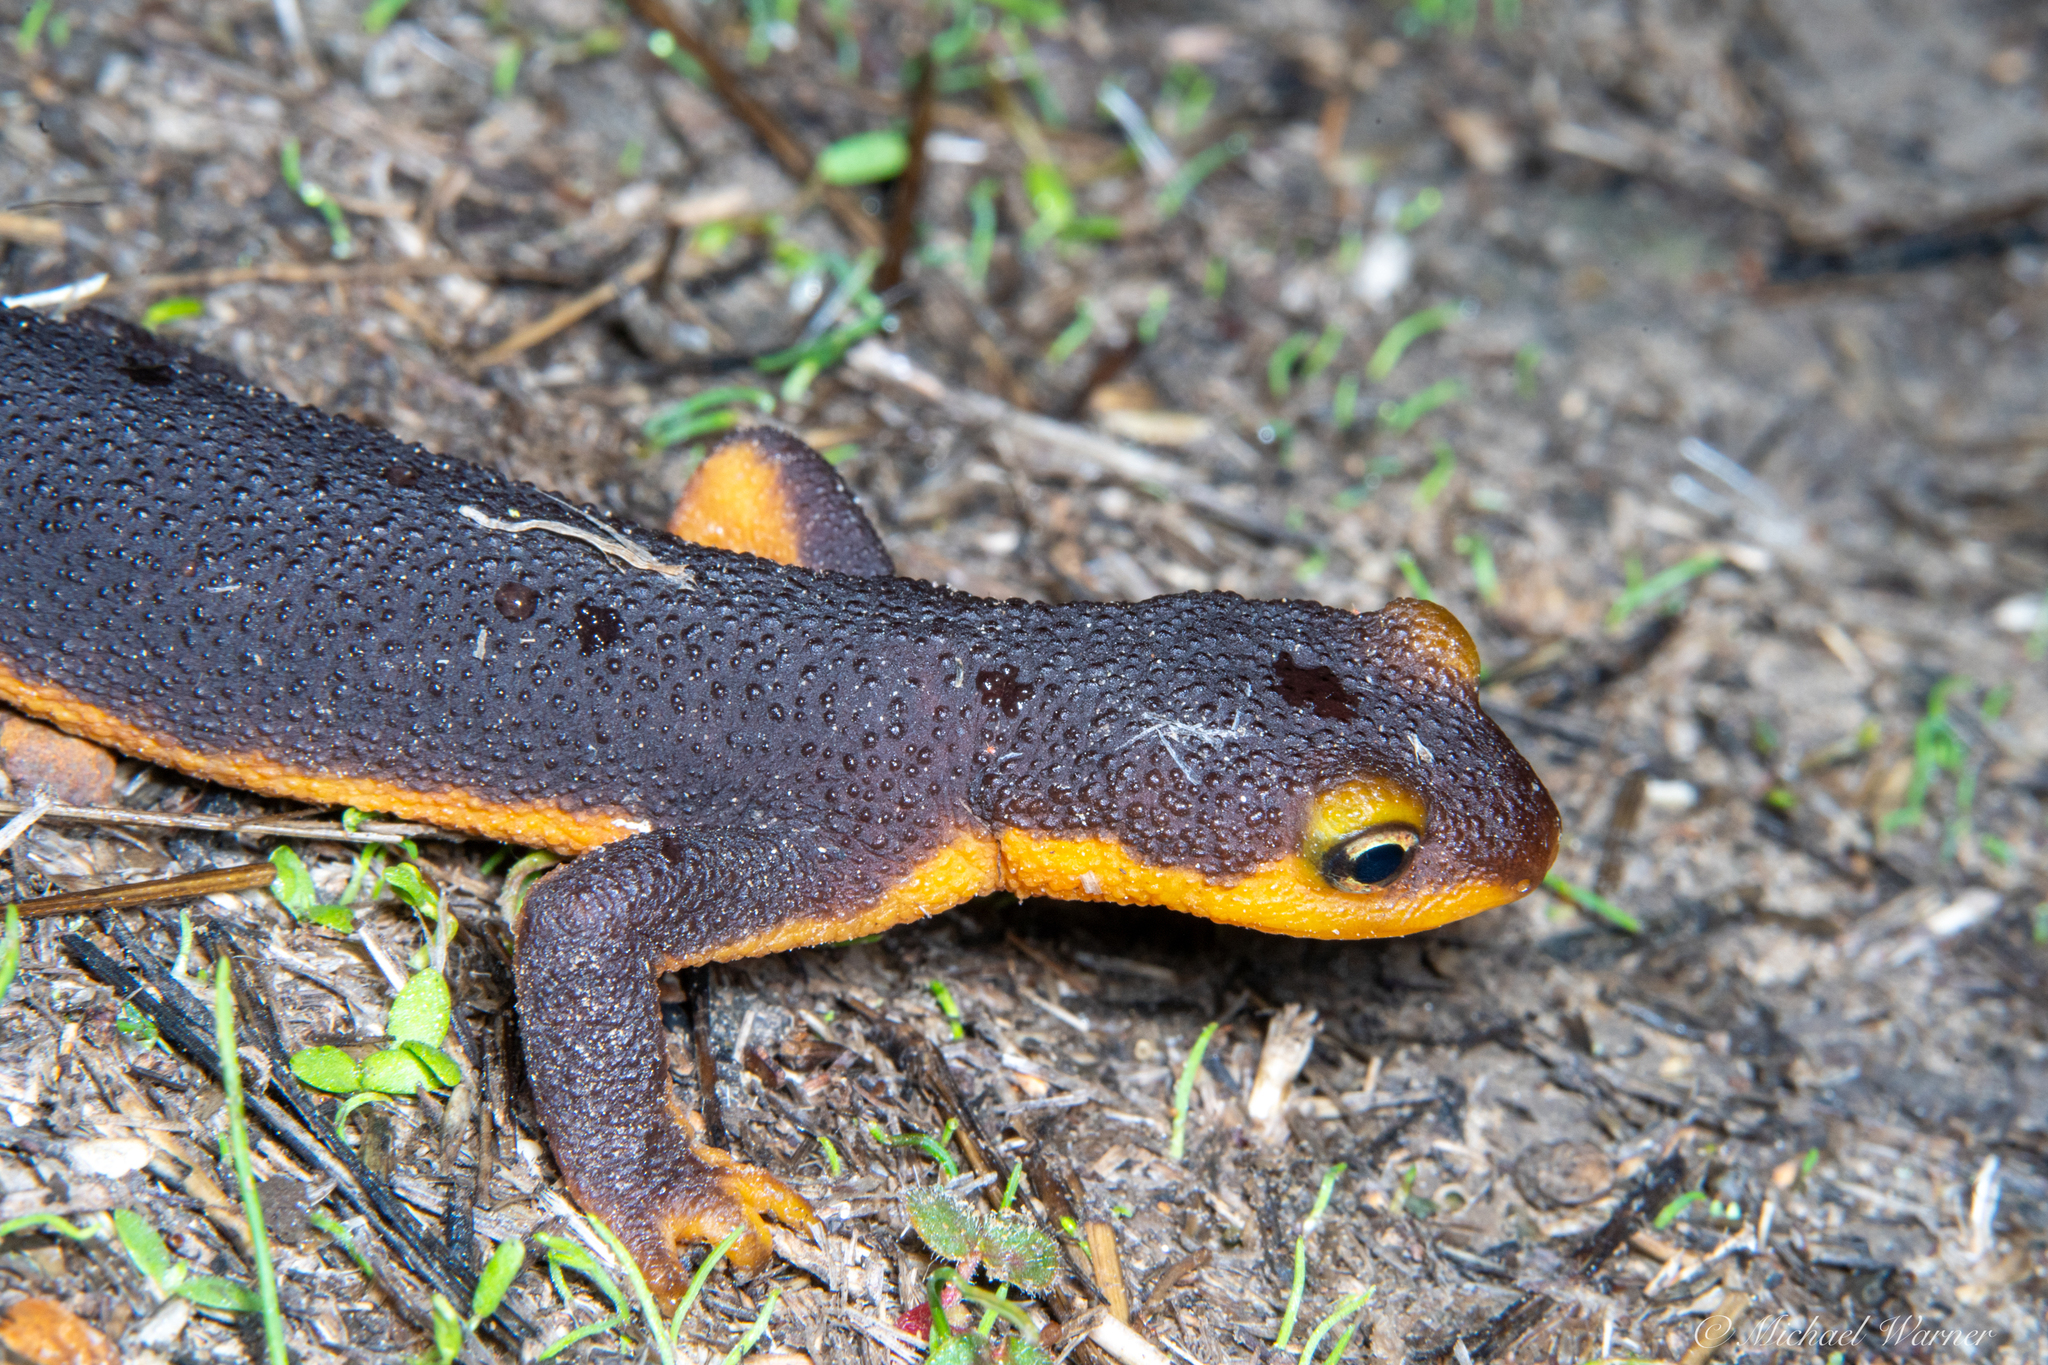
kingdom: Animalia
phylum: Chordata
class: Amphibia
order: Caudata
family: Salamandridae
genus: Taricha
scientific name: Taricha torosa
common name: California newt
